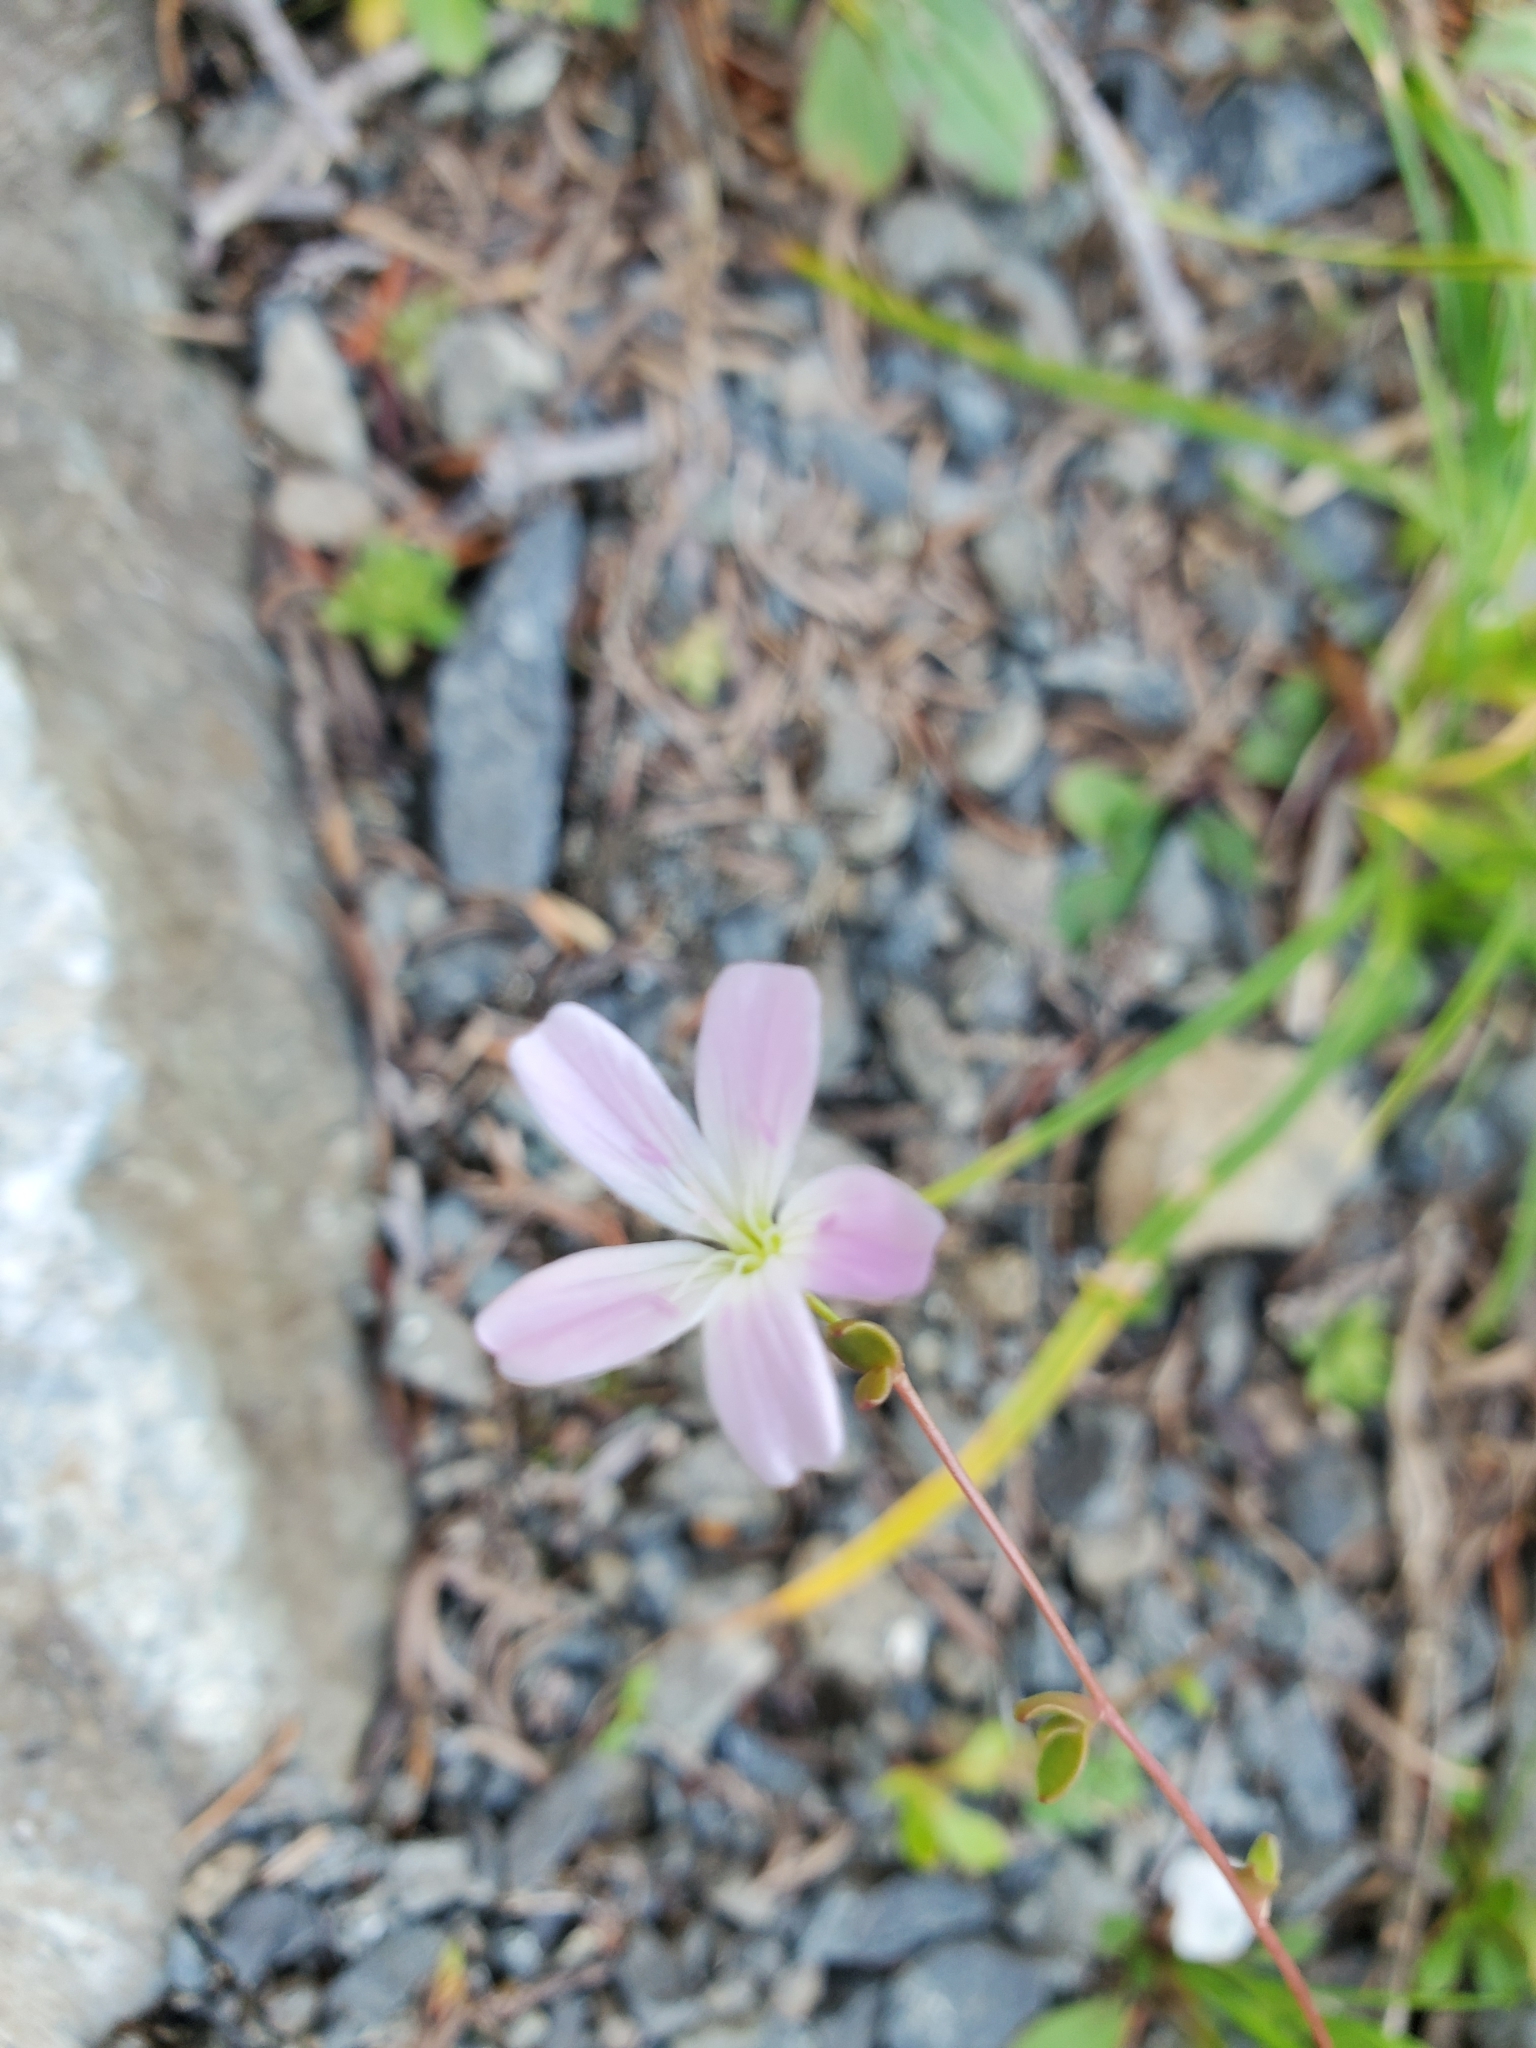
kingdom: Plantae
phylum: Tracheophyta
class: Magnoliopsida
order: Caryophyllales
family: Montiaceae
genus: Montia
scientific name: Montia parvifolia
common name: Small-leaved blinks
